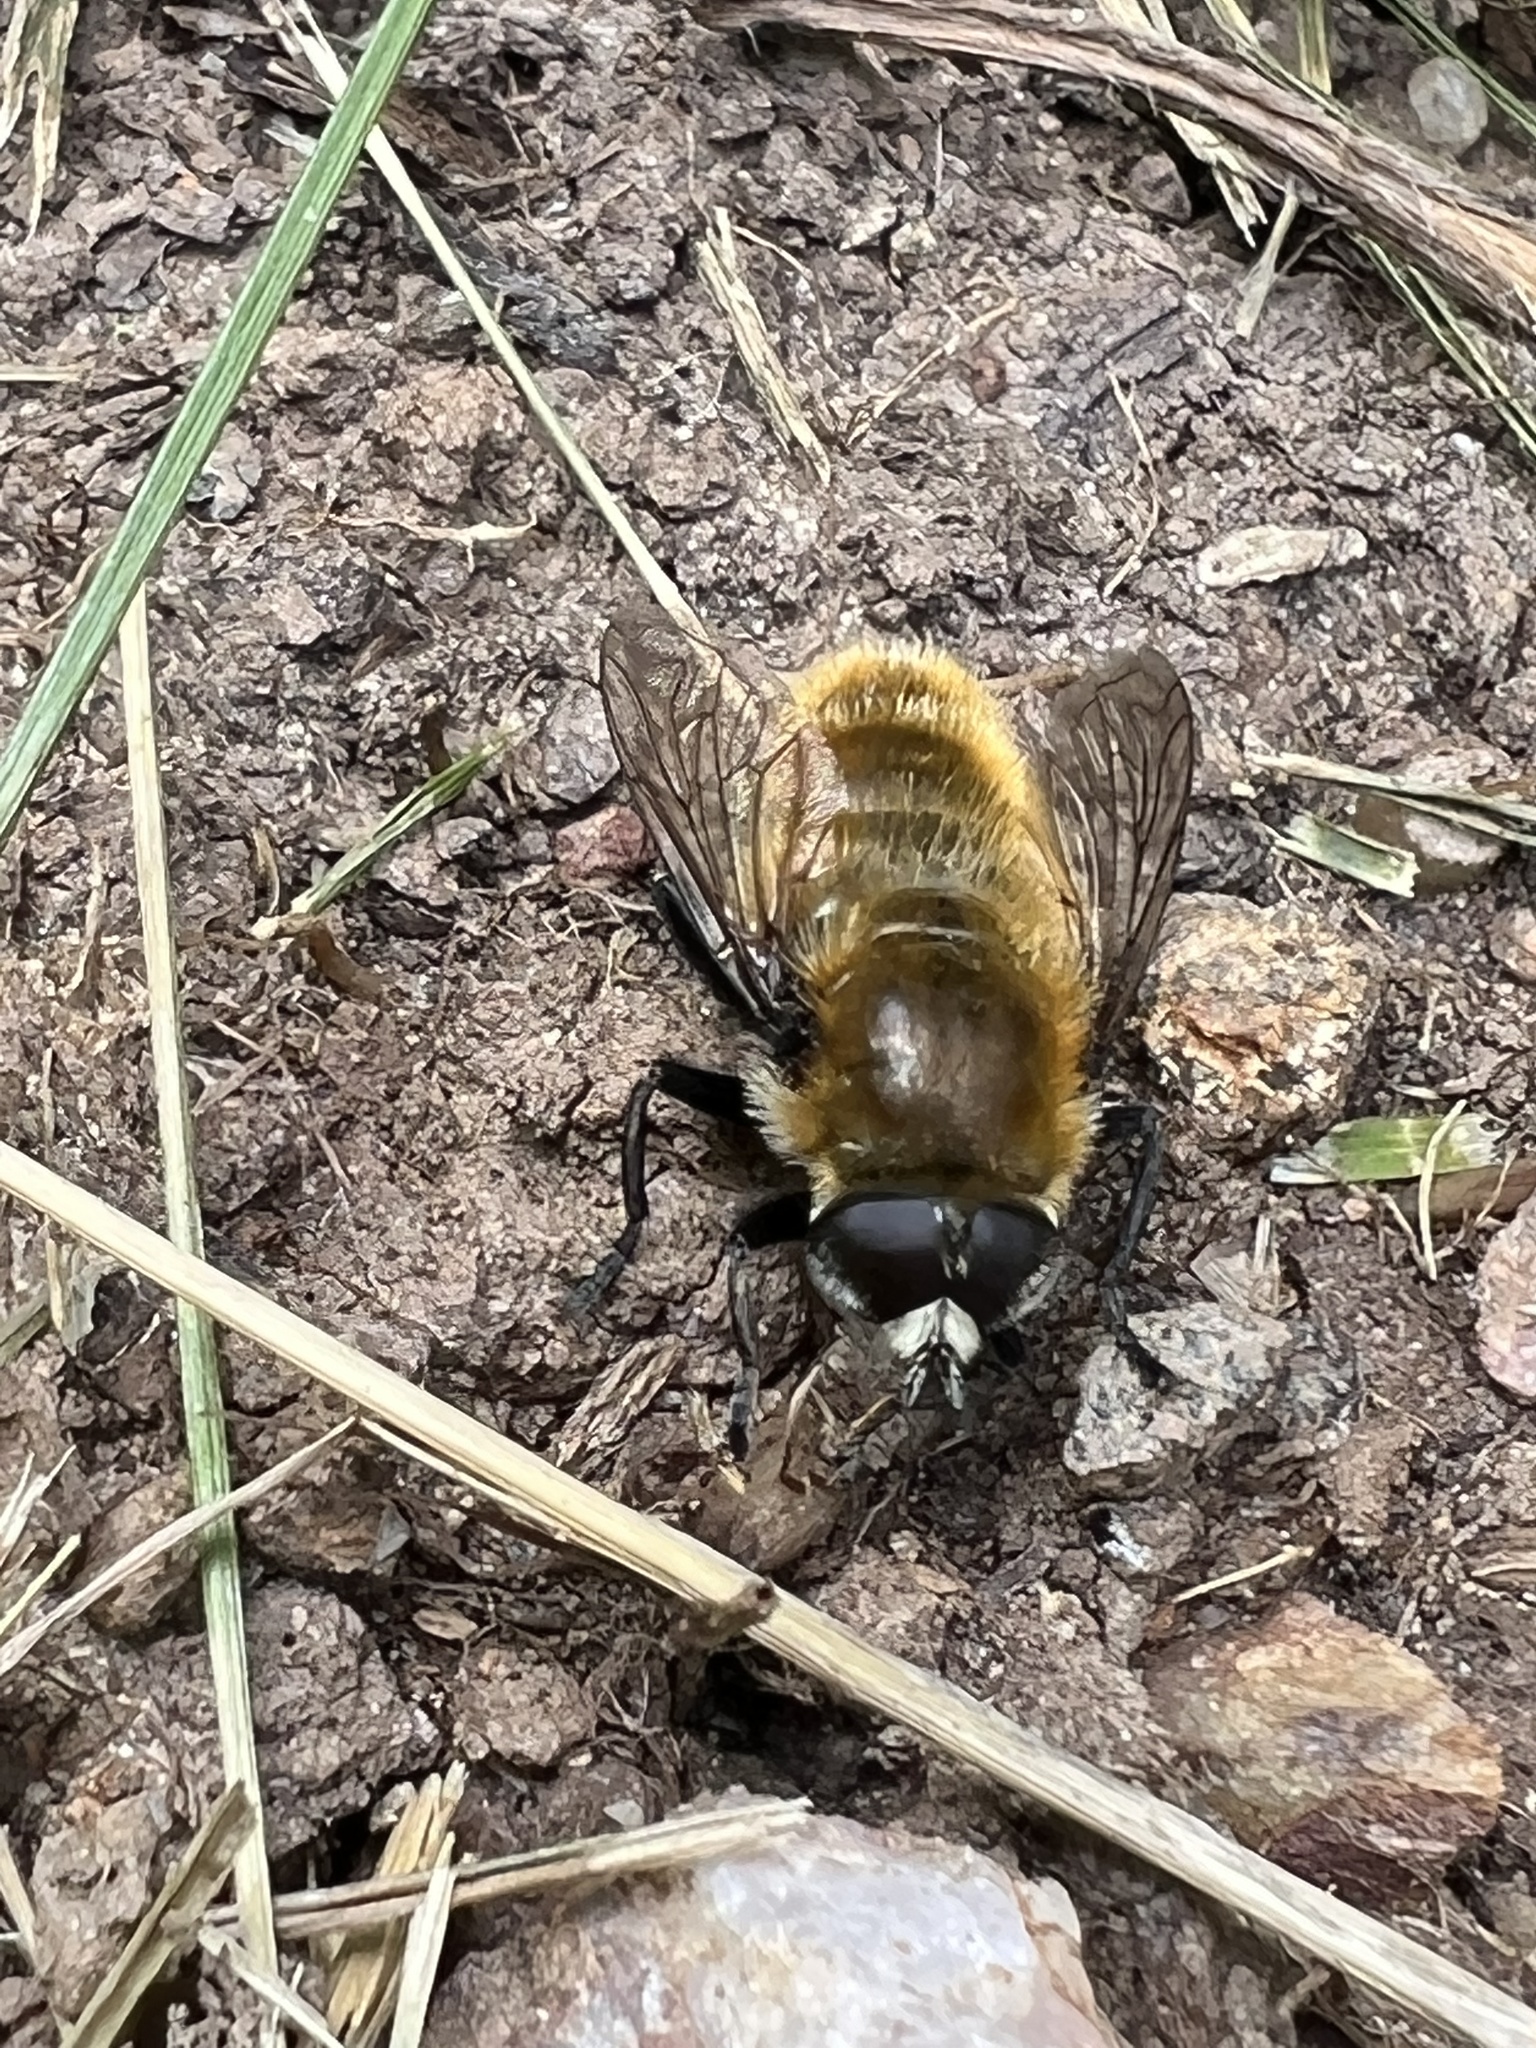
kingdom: Animalia
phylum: Arthropoda
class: Insecta
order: Diptera
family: Syrphidae
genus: Merodon
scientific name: Merodon equestris
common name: Greater bulb-fly
